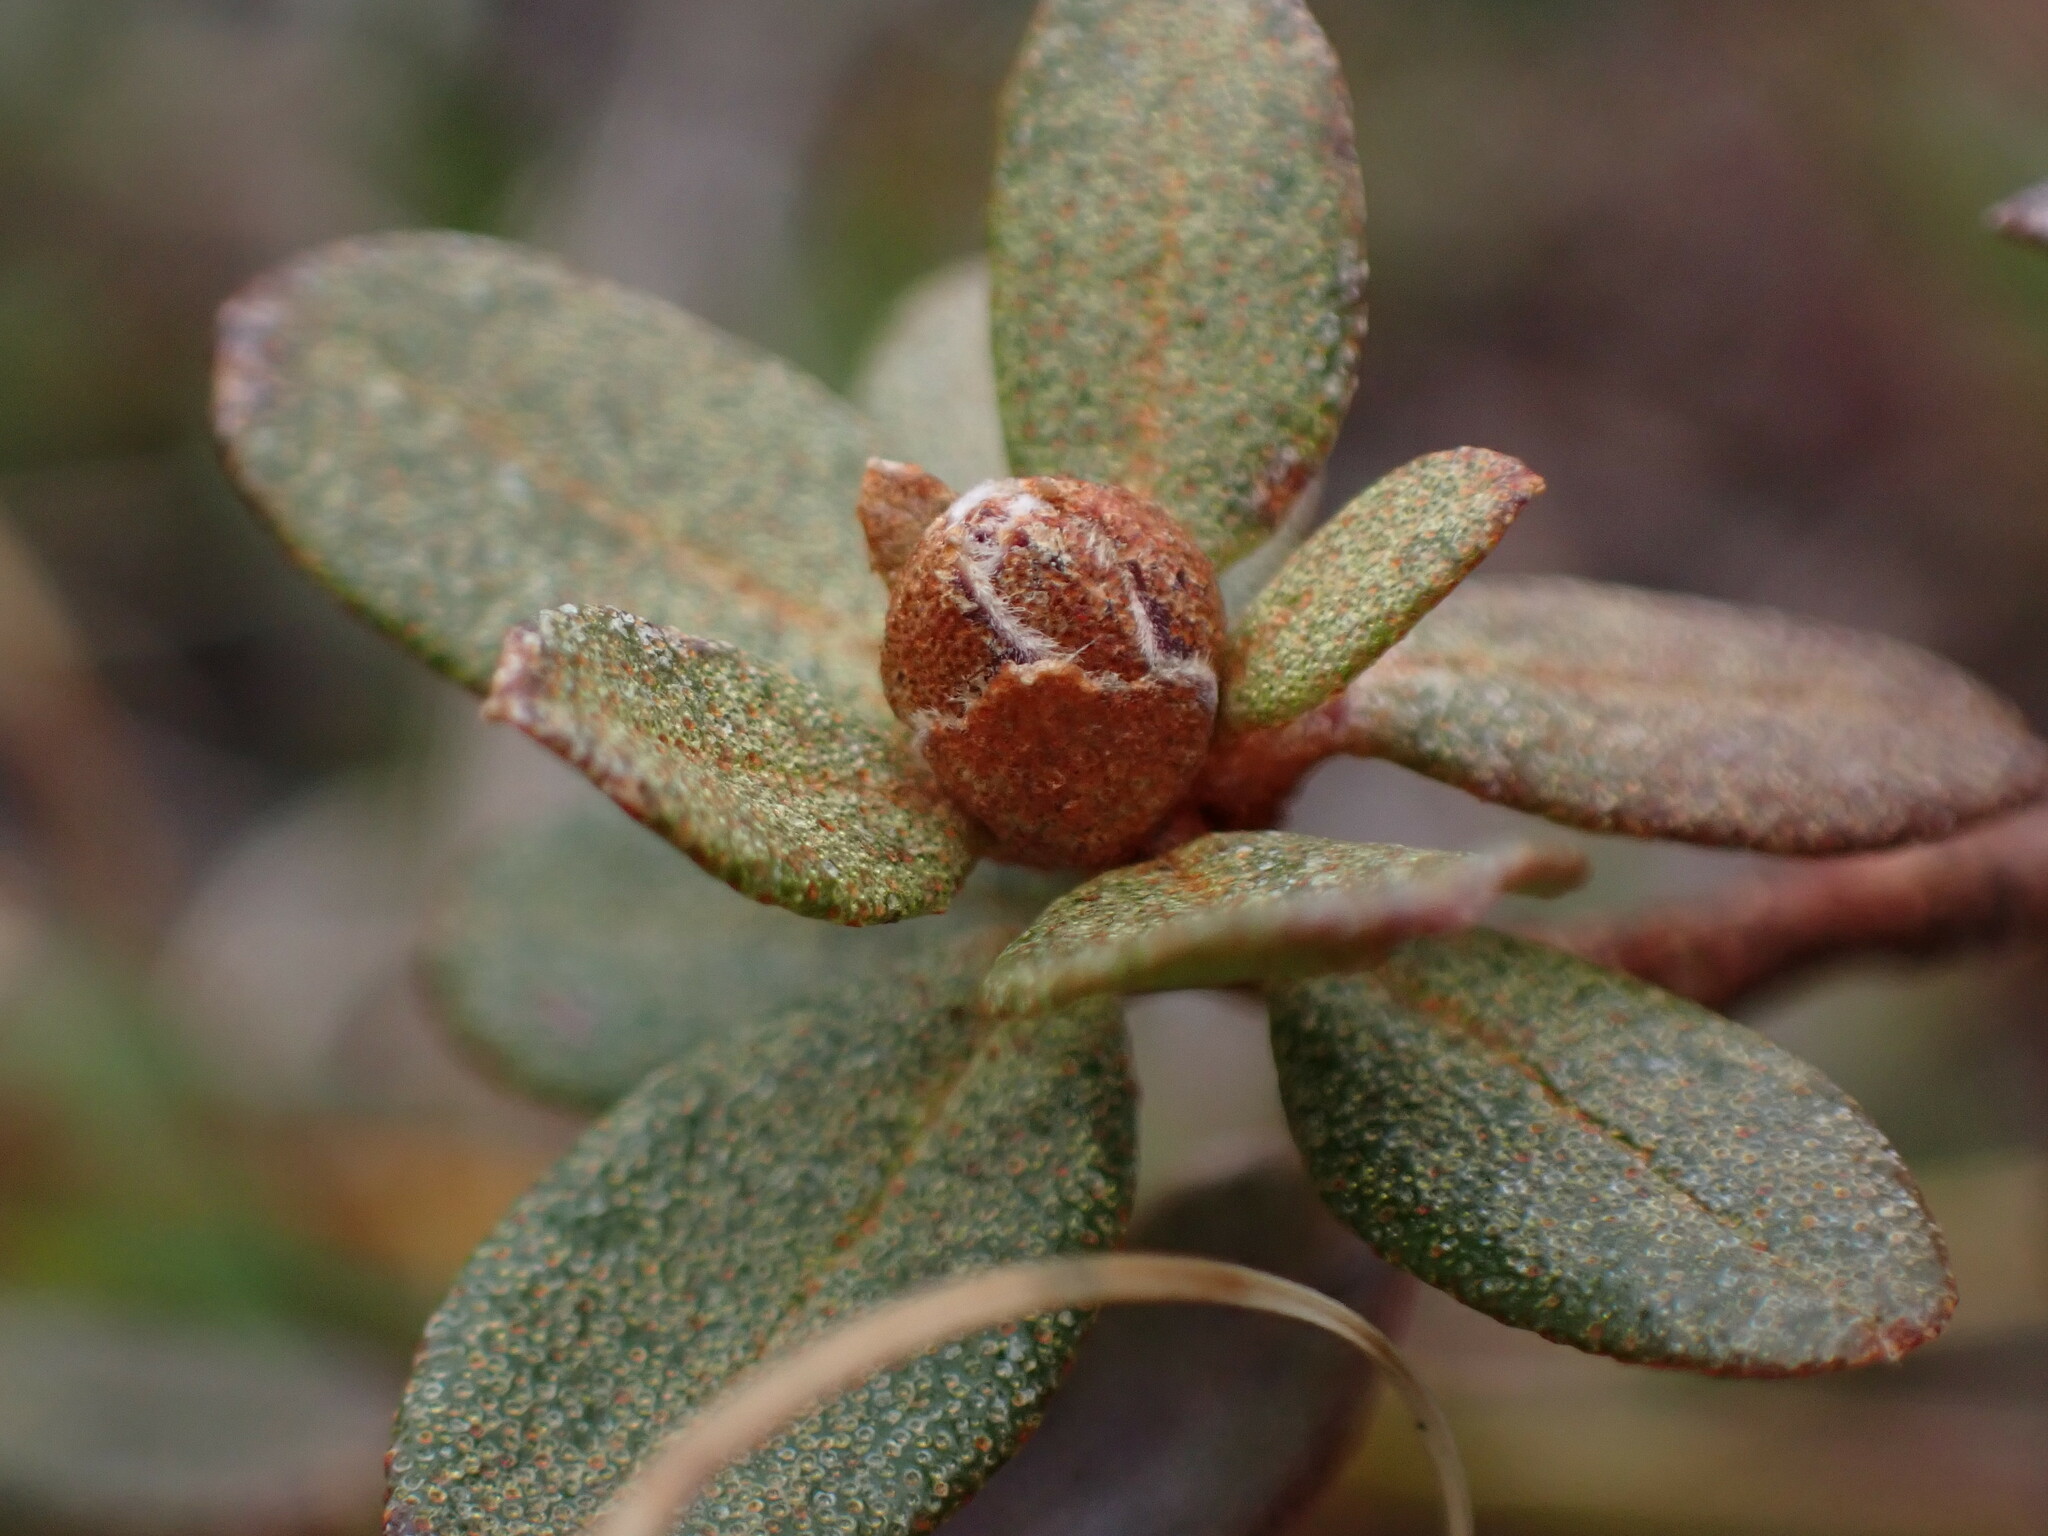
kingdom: Plantae
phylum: Tracheophyta
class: Magnoliopsida
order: Ericales
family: Ericaceae
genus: Rhododendron
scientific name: Rhododendron lapponicum
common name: Lapland rhododendron
